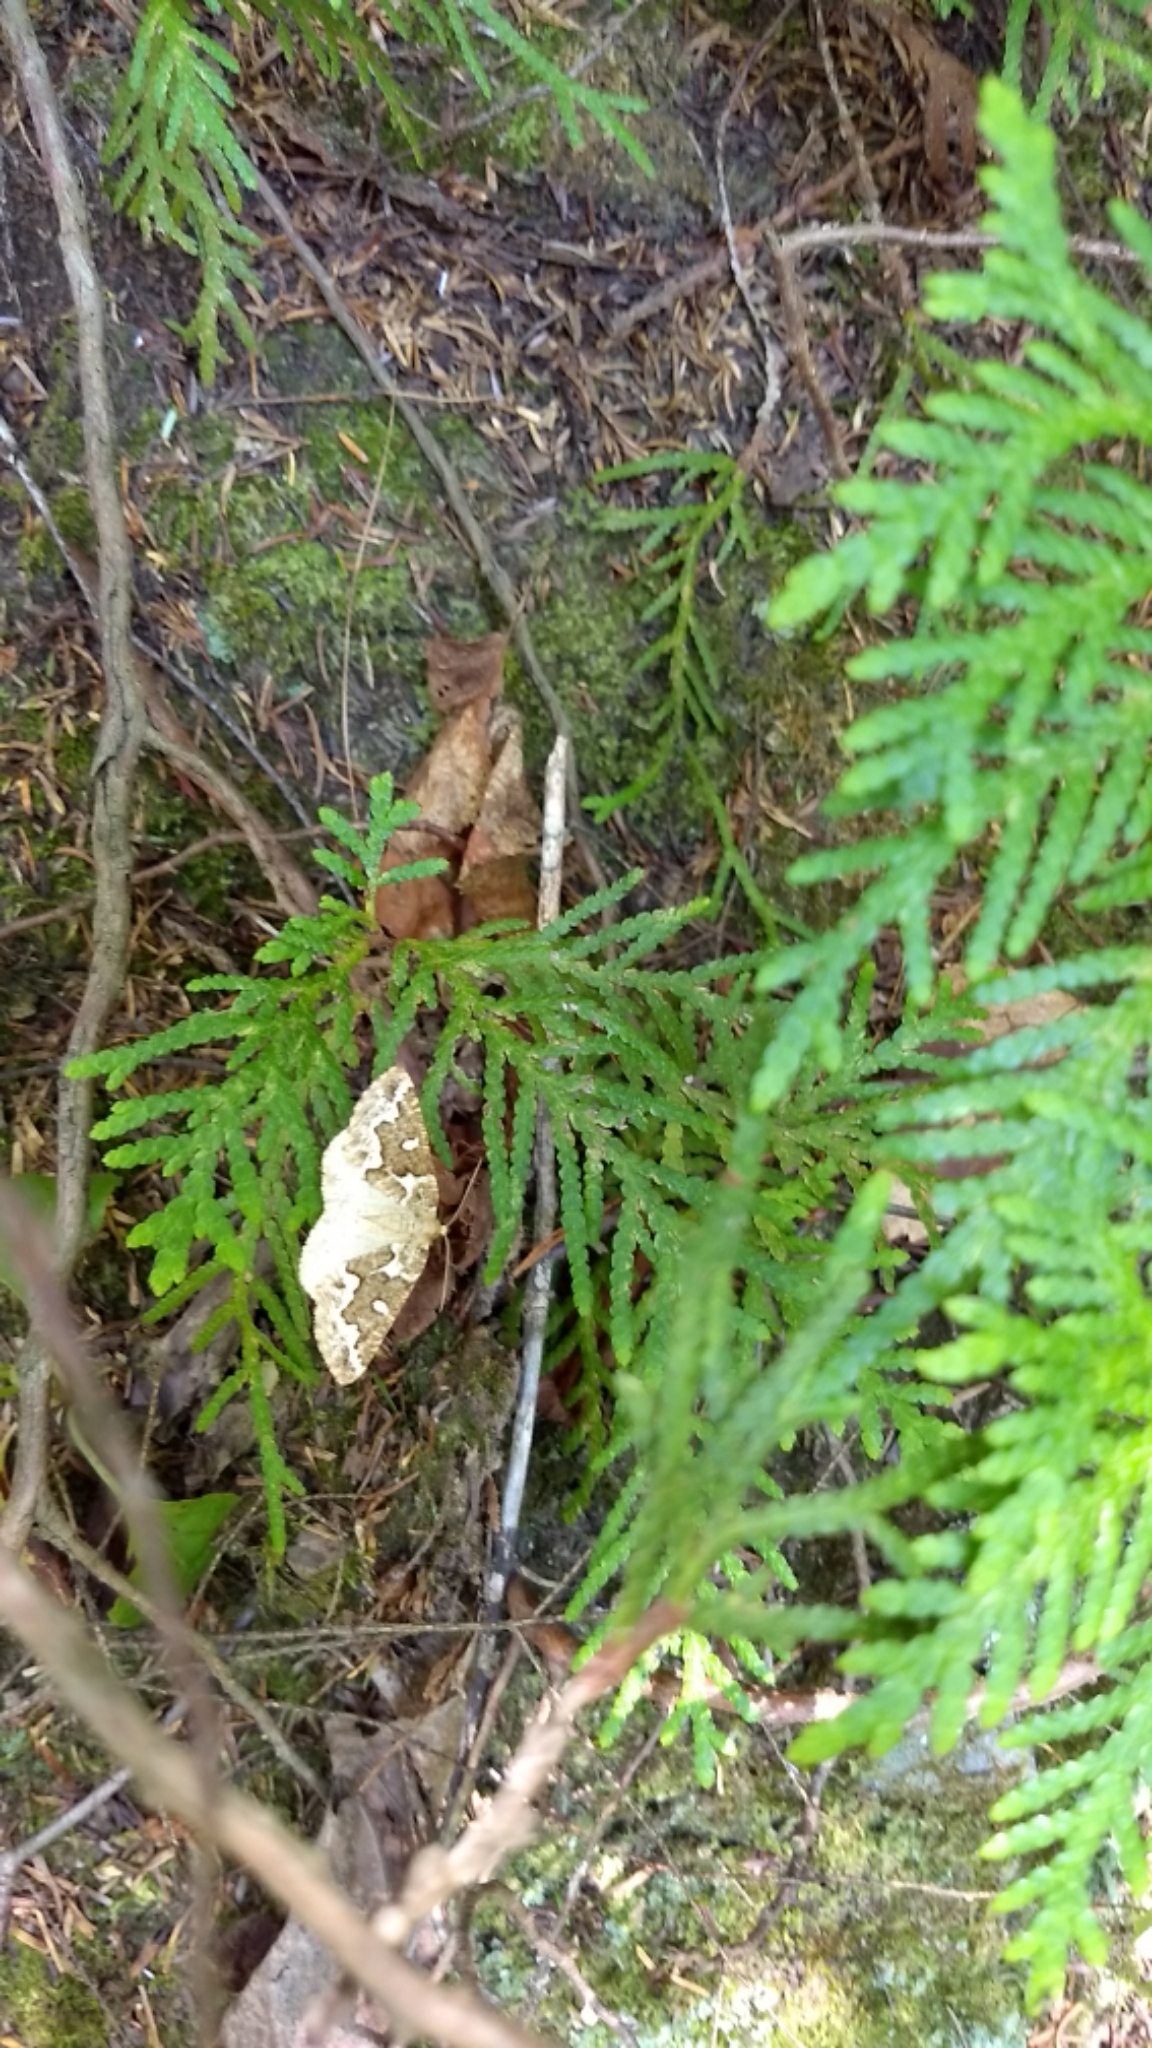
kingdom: Animalia
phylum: Arthropoda
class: Insecta
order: Lepidoptera
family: Geometridae
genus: Caripeta
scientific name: Caripeta divisata
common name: Gray spruce looper
